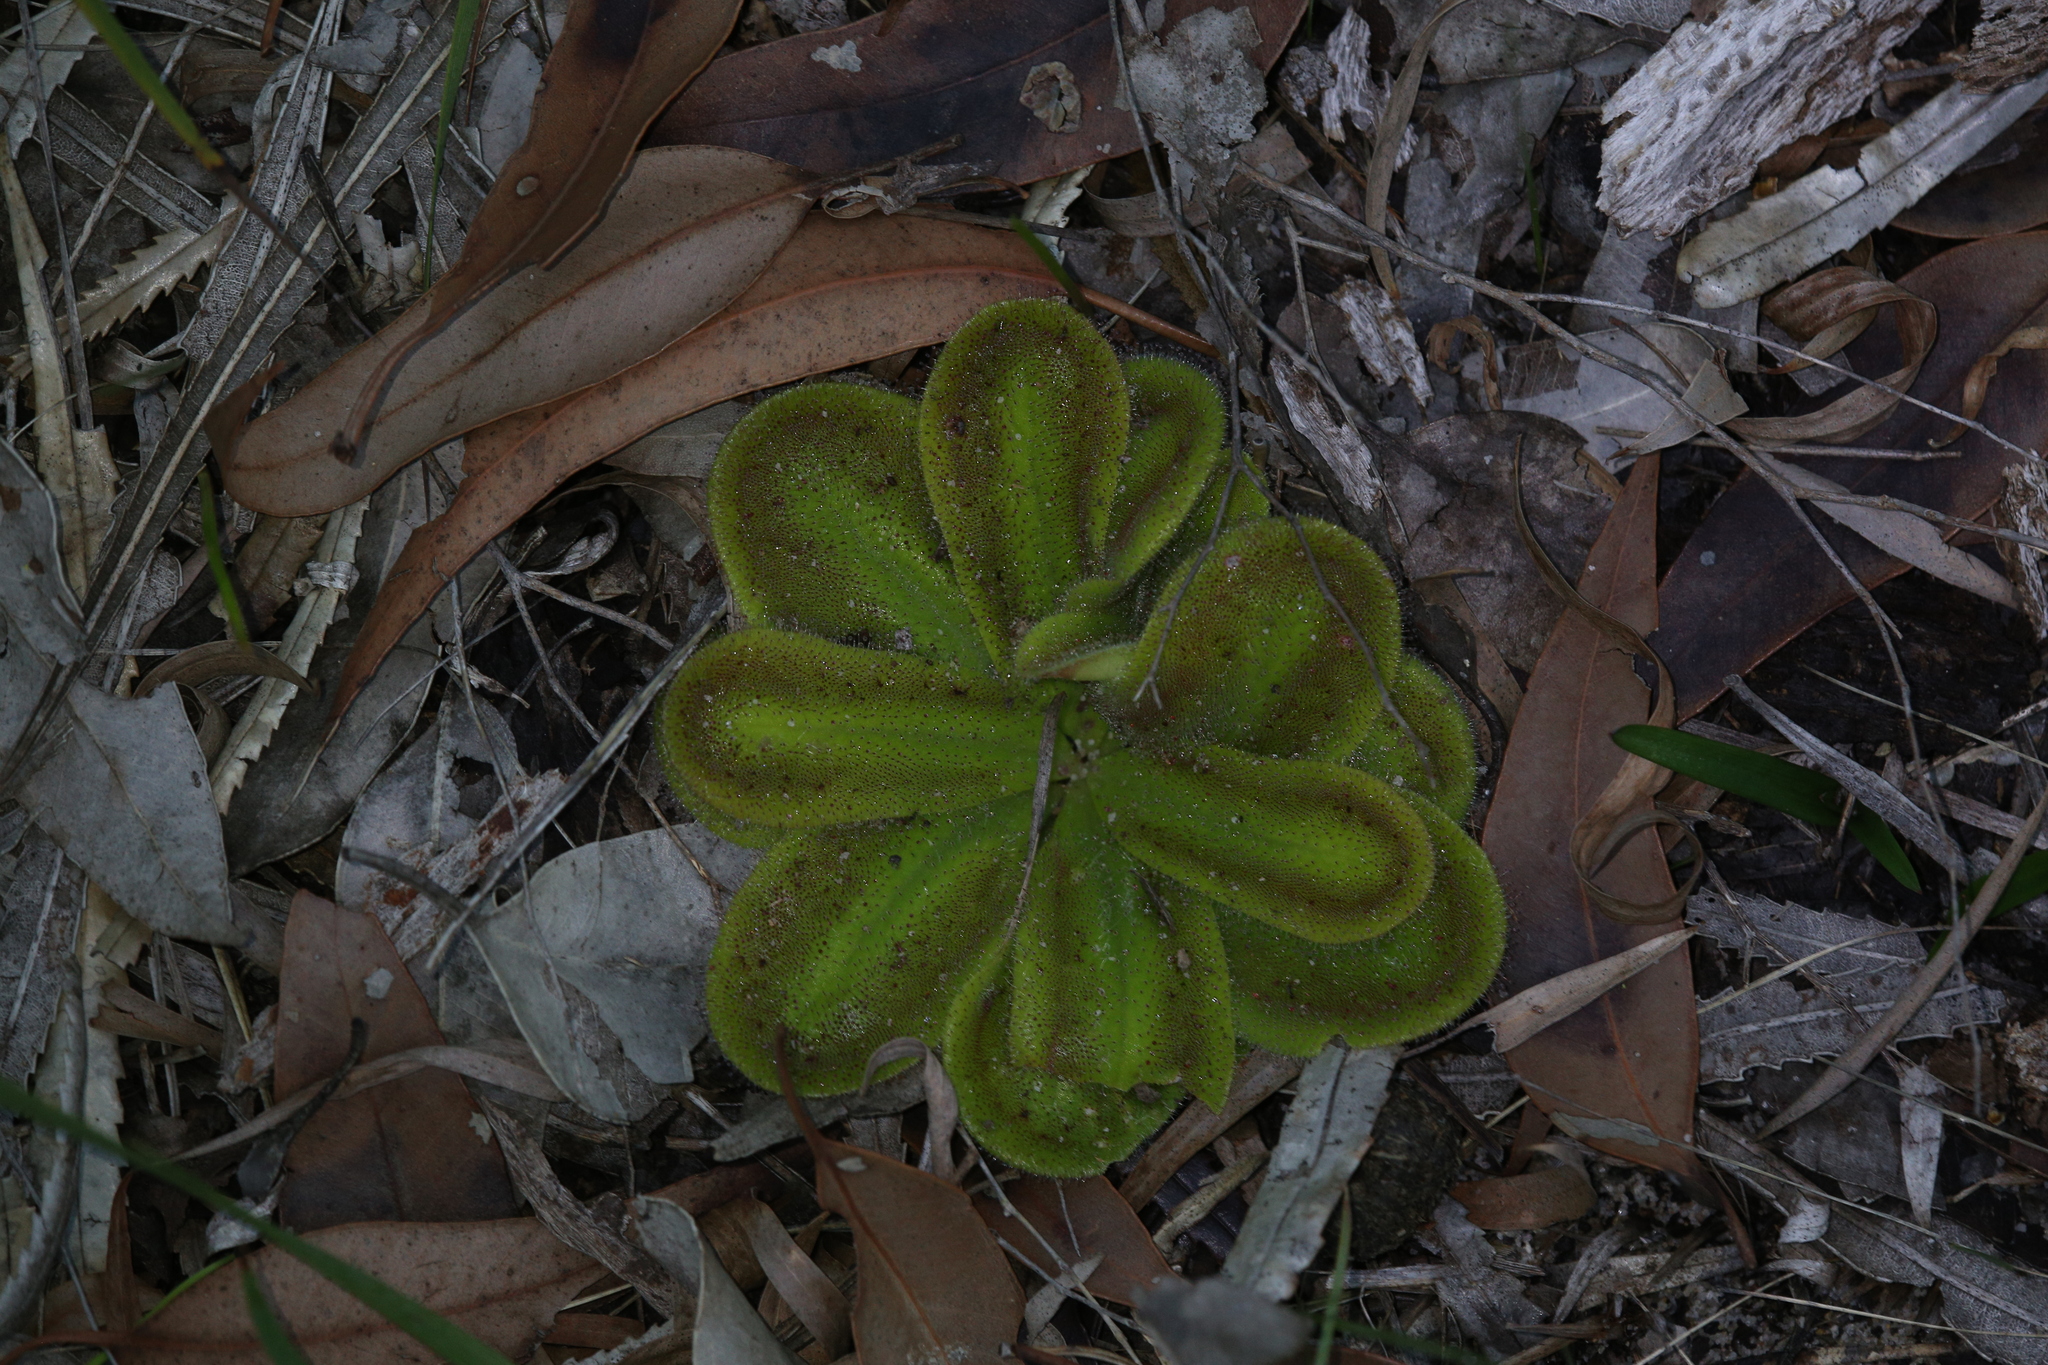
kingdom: Plantae
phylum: Tracheophyta
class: Magnoliopsida
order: Caryophyllales
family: Droseraceae
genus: Drosera
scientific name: Drosera erythrorhiza
